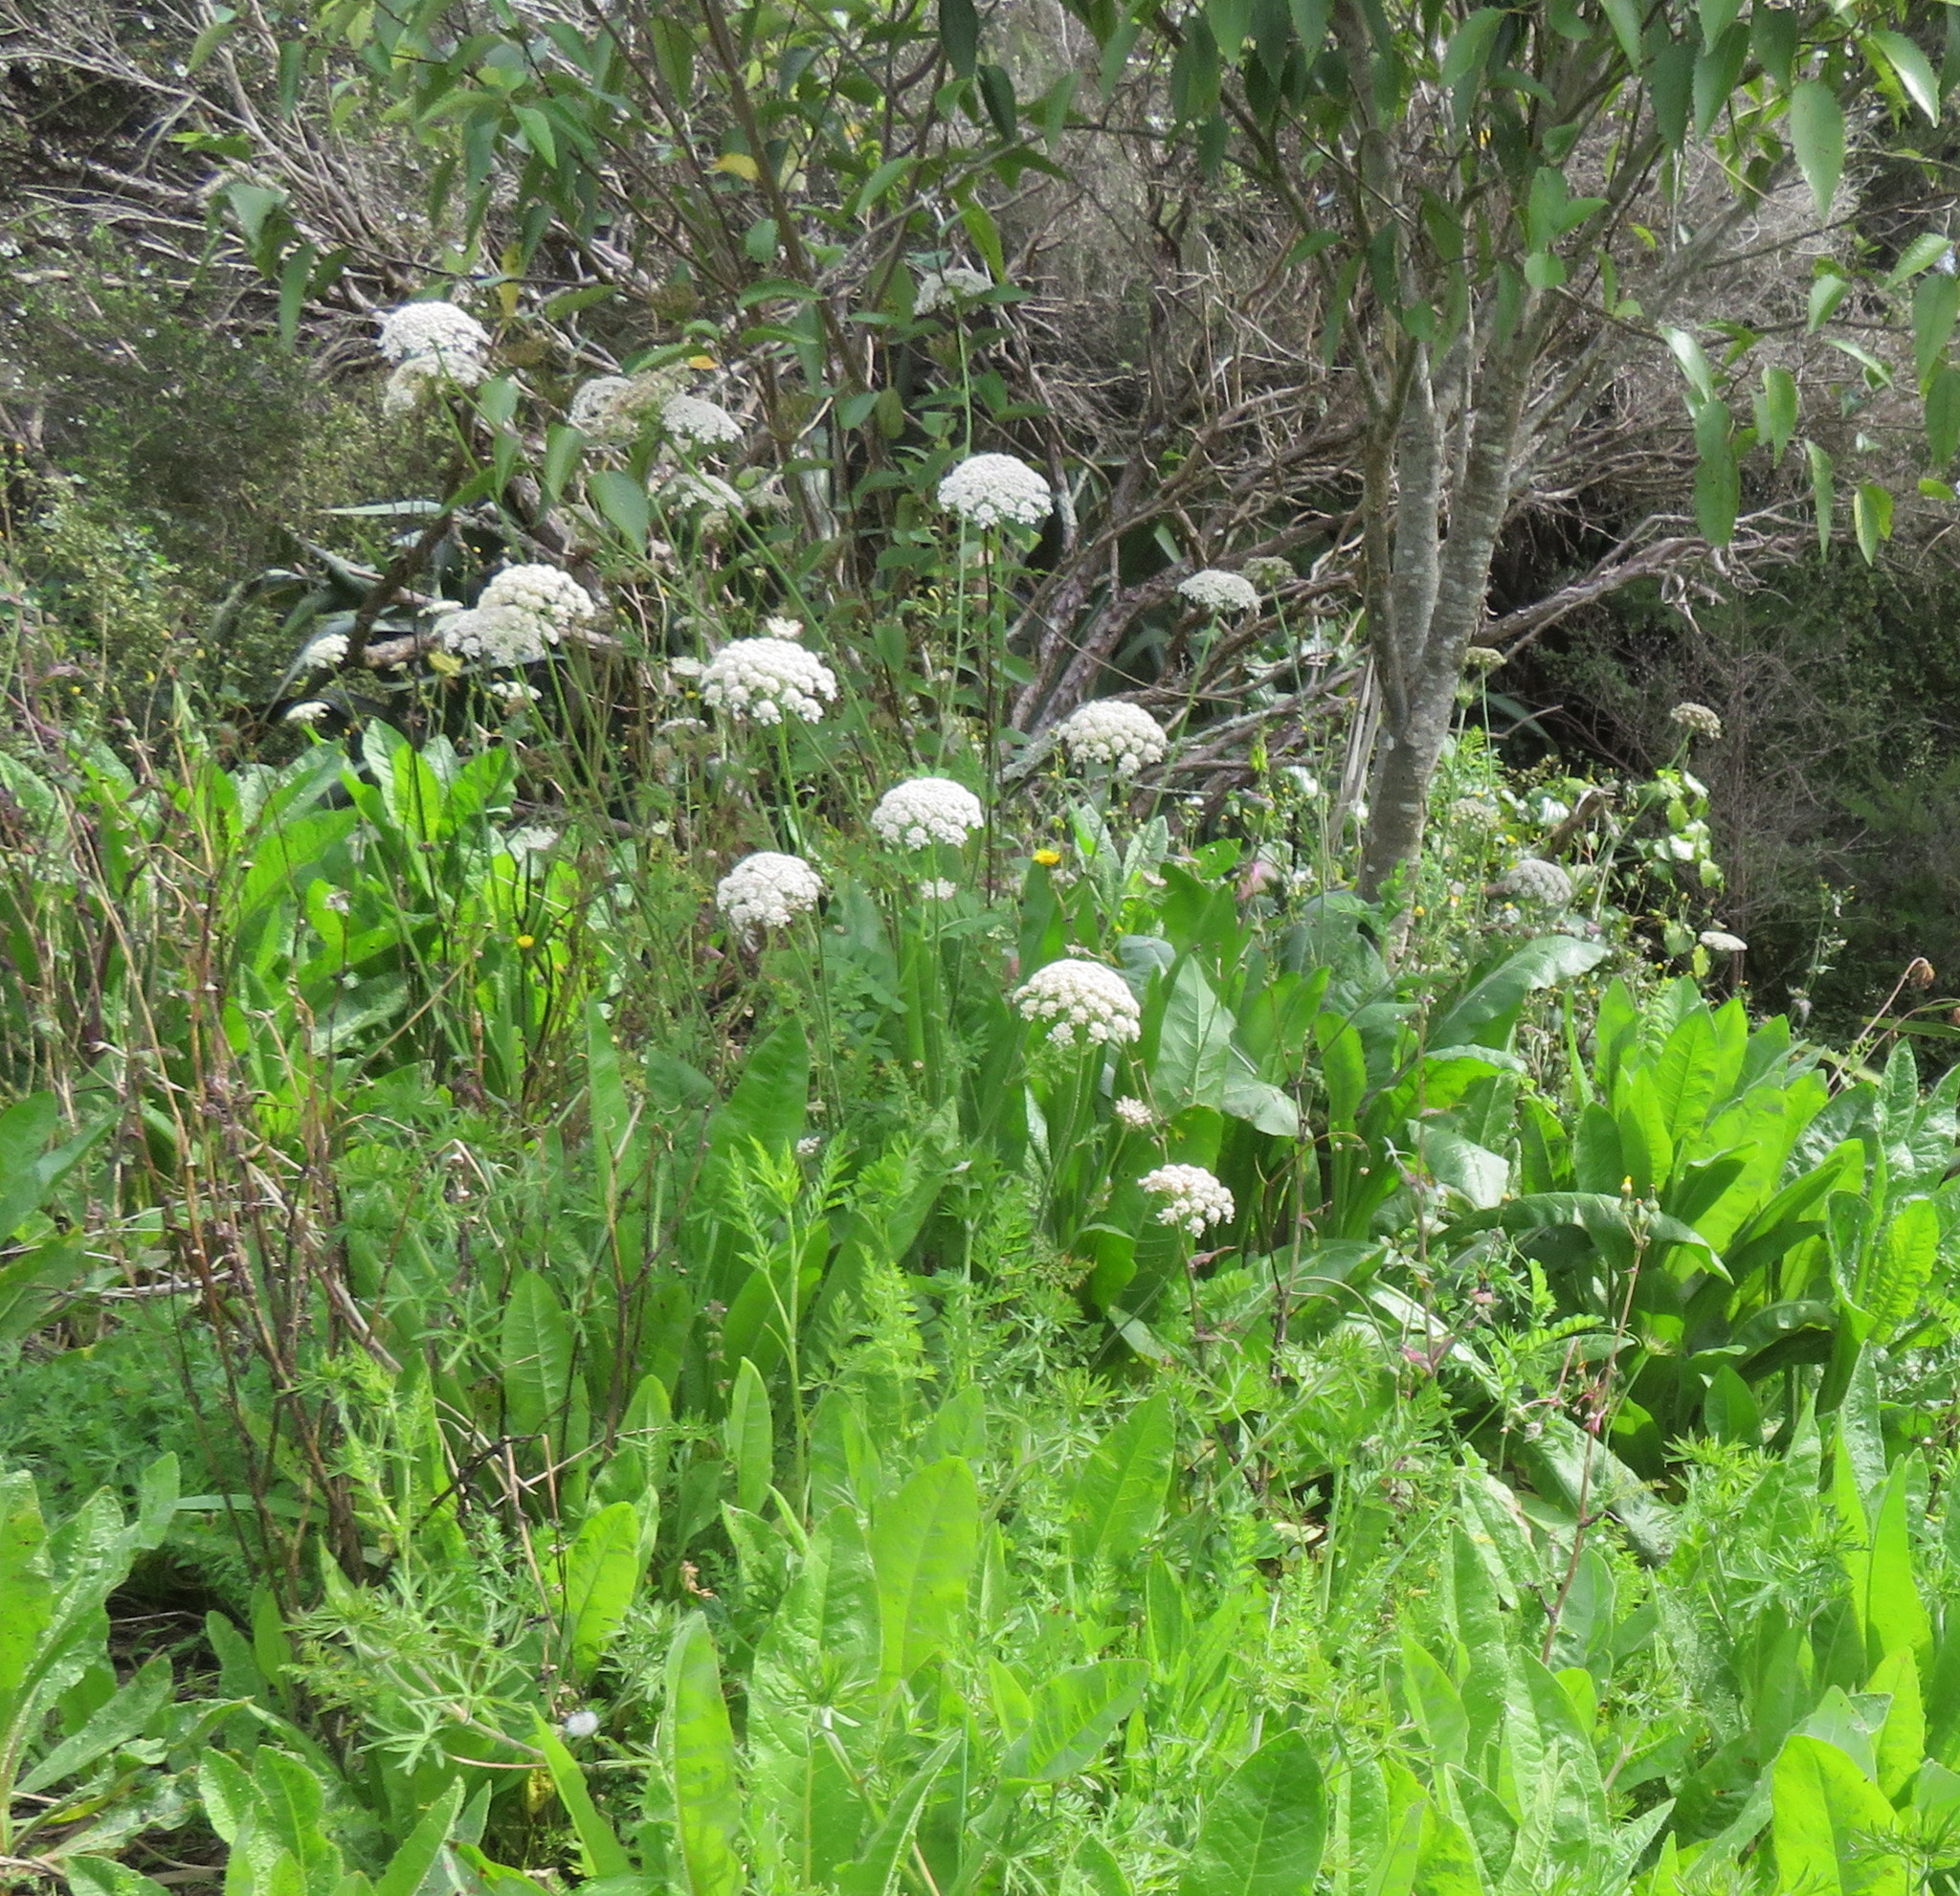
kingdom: Plantae
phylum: Tracheophyta
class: Magnoliopsida
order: Apiales
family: Apiaceae
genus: Daucus
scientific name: Daucus carota
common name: Wild carrot
